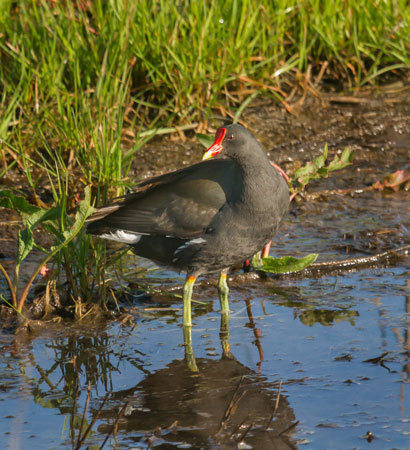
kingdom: Animalia
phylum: Chordata
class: Aves
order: Gruiformes
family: Rallidae
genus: Gallinula
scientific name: Gallinula chloropus
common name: Common moorhen
